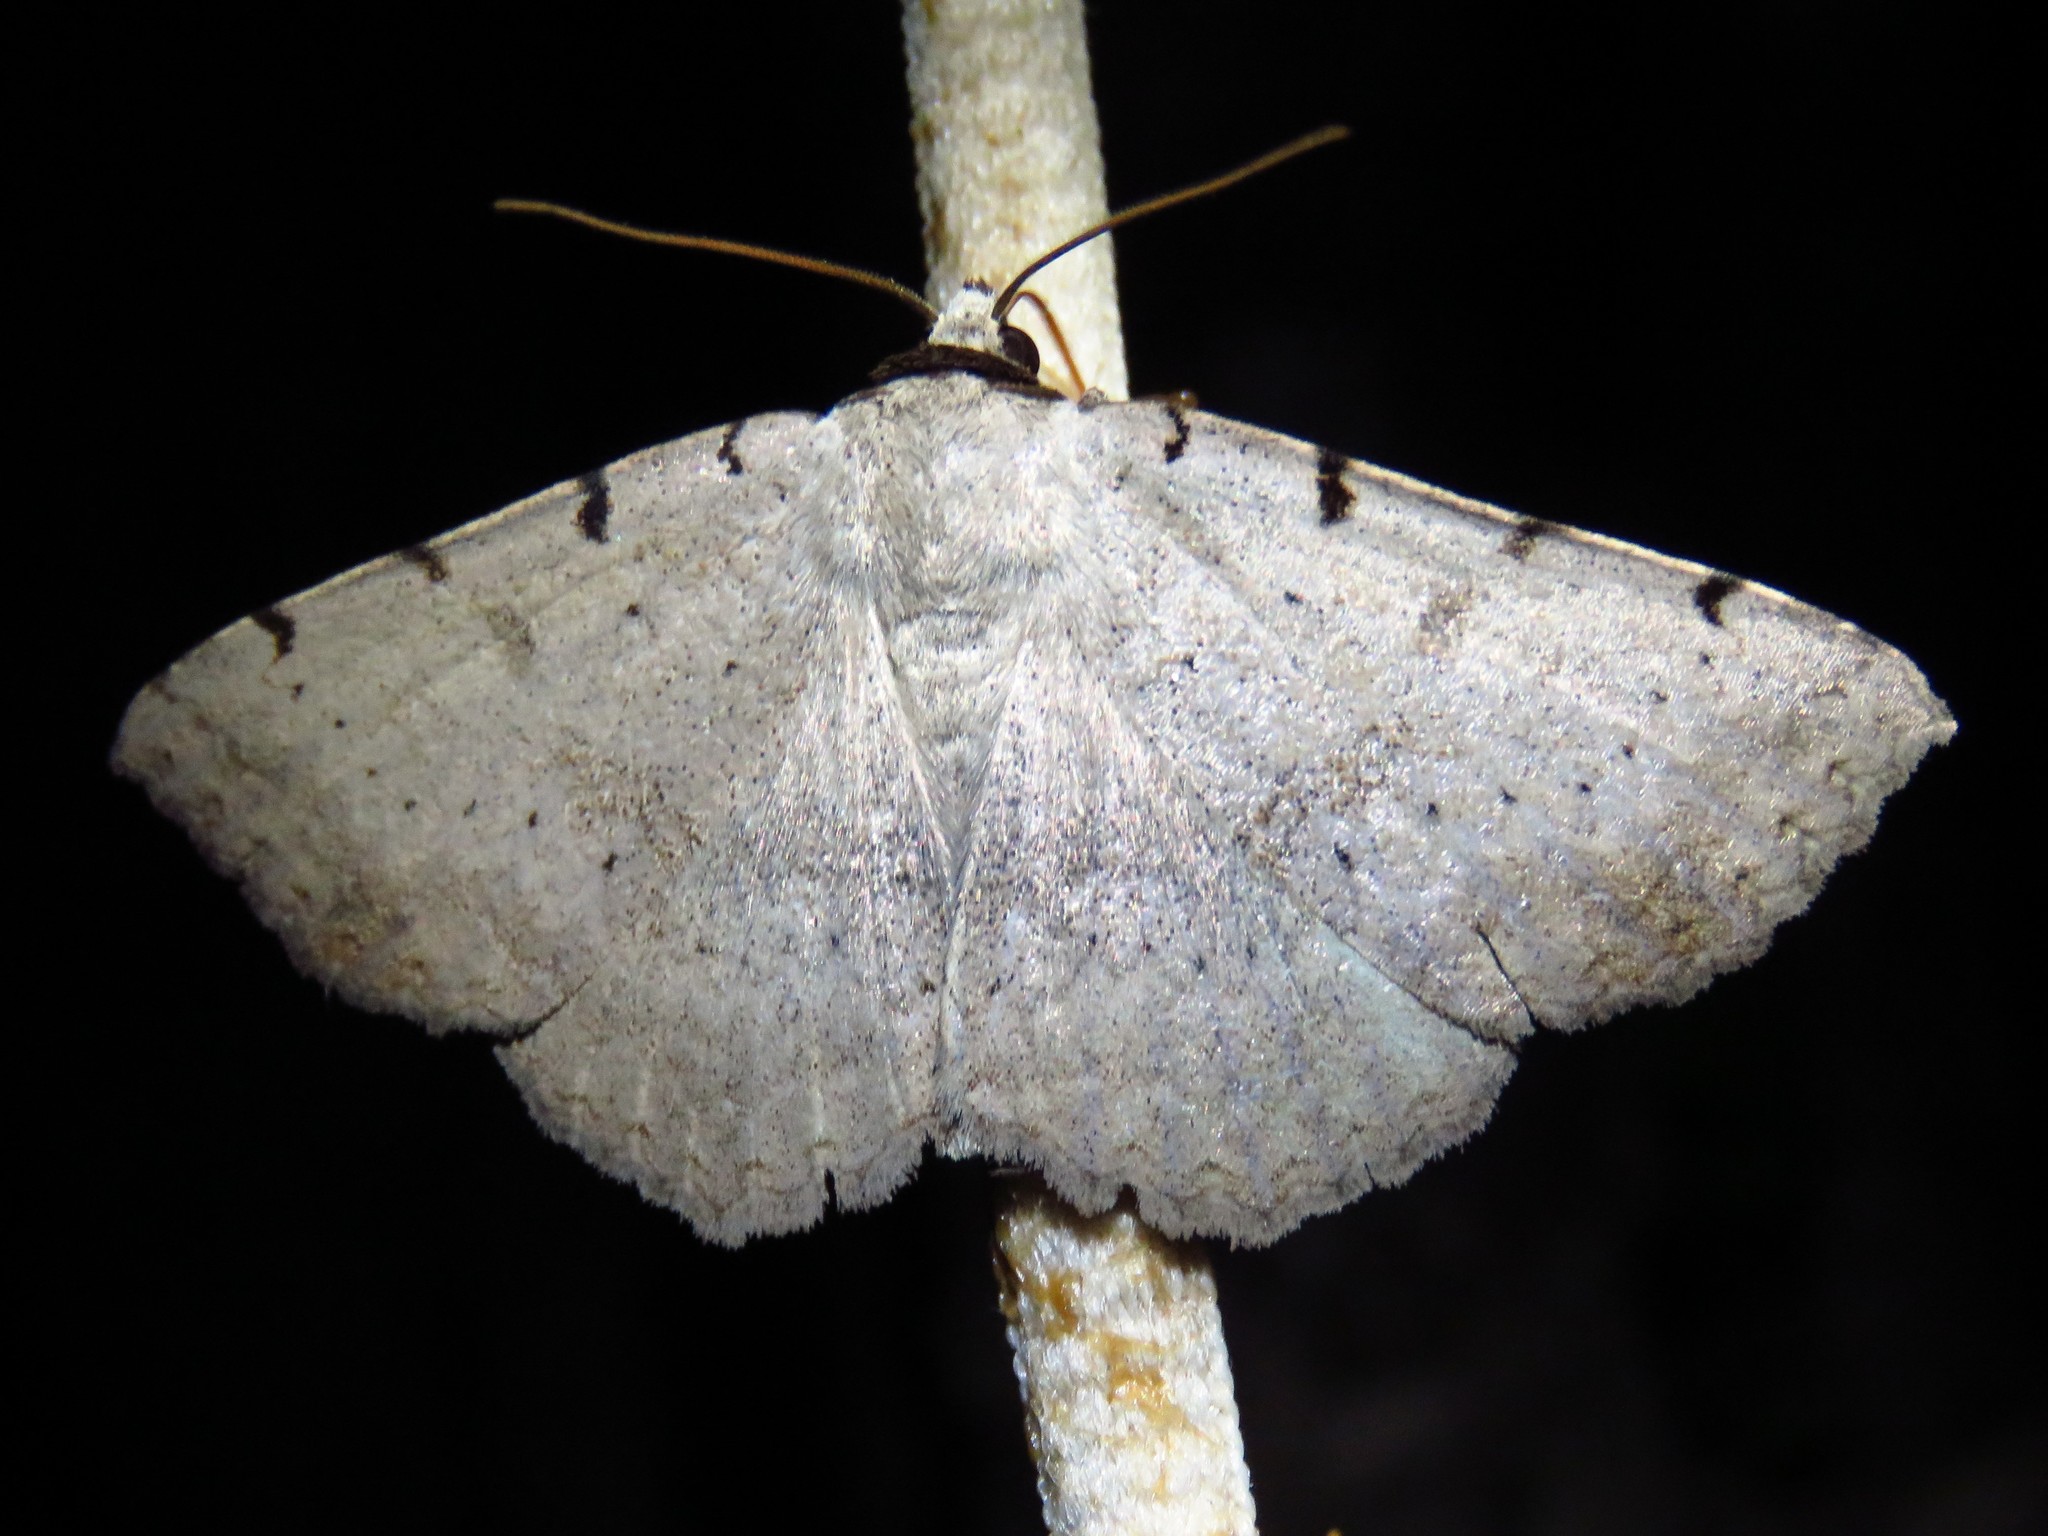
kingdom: Animalia
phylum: Arthropoda
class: Insecta
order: Lepidoptera
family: Erebidae
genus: Spiloloma
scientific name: Spiloloma lunilinea
